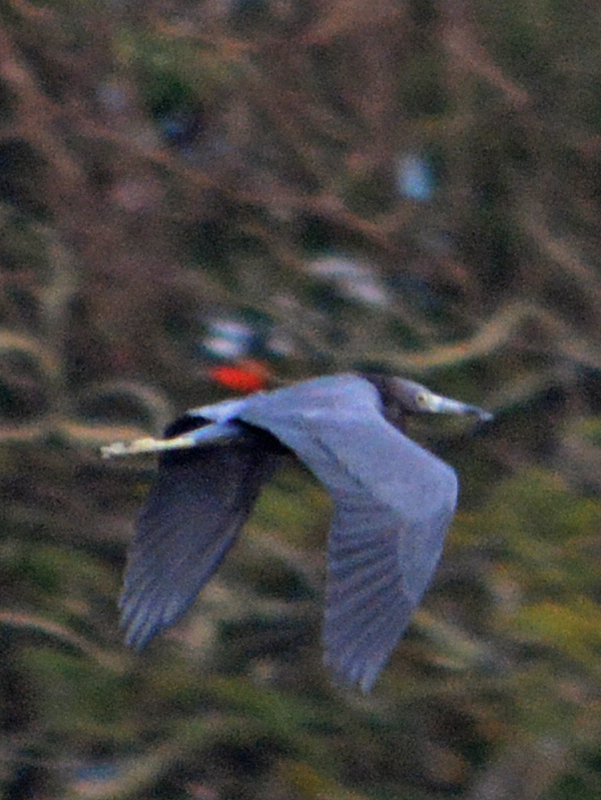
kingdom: Animalia
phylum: Chordata
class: Aves
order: Pelecaniformes
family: Ardeidae
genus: Egretta
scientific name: Egretta caerulea
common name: Little blue heron
